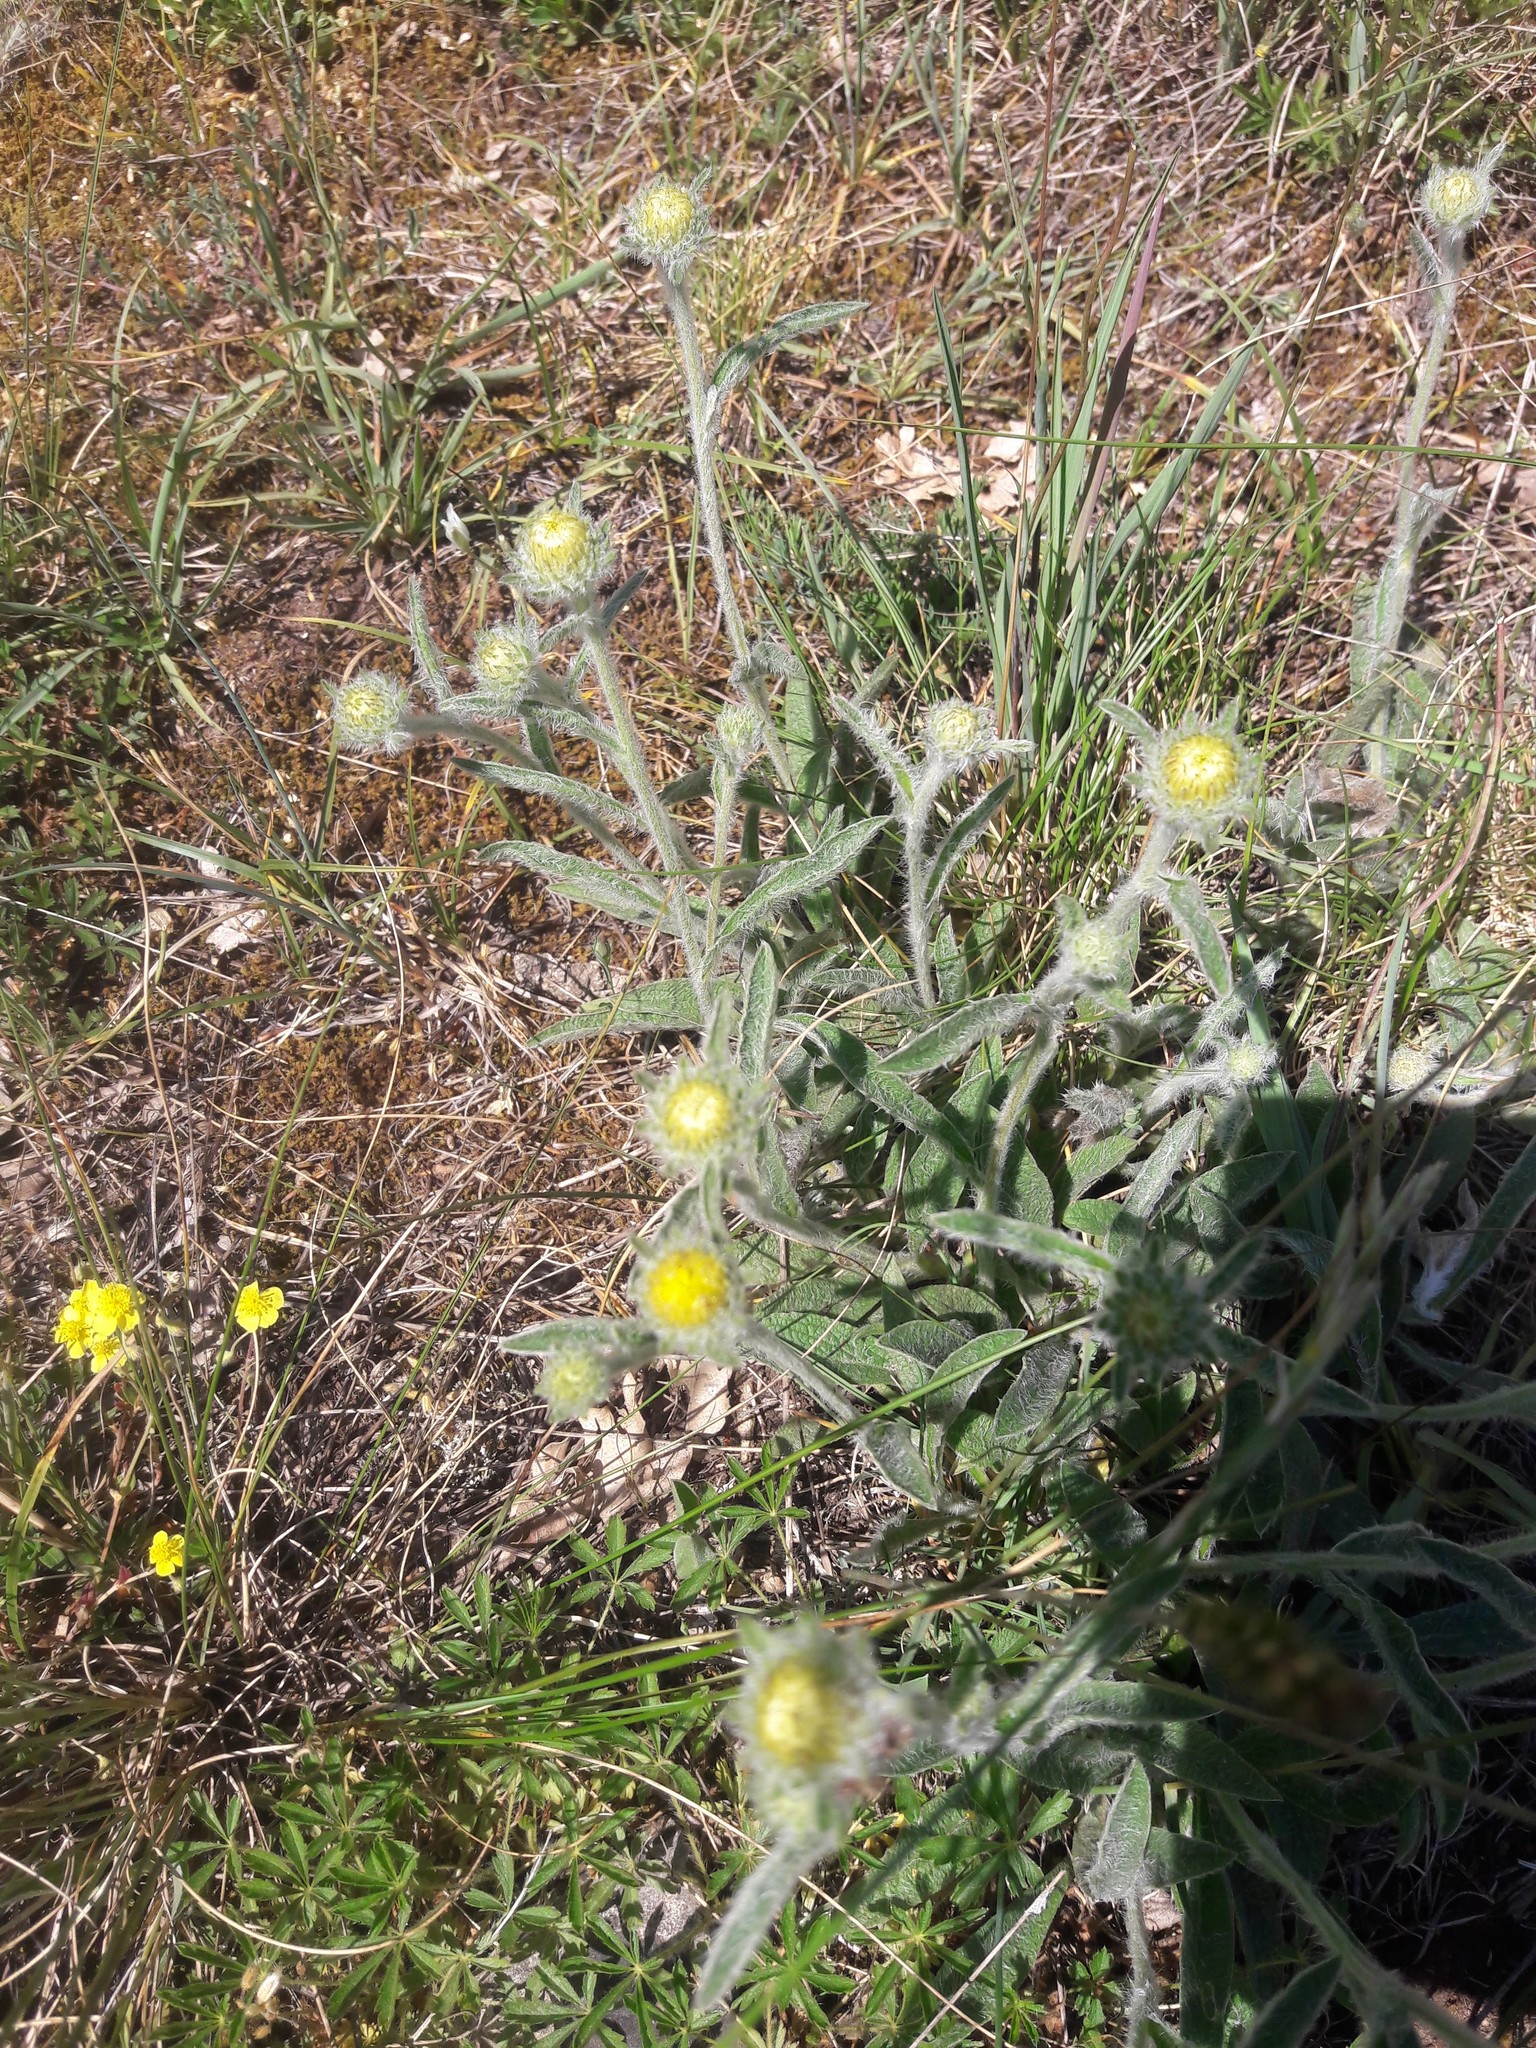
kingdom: Plantae
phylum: Tracheophyta
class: Magnoliopsida
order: Asterales
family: Asteraceae
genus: Pentanema
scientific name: Pentanema montanum
